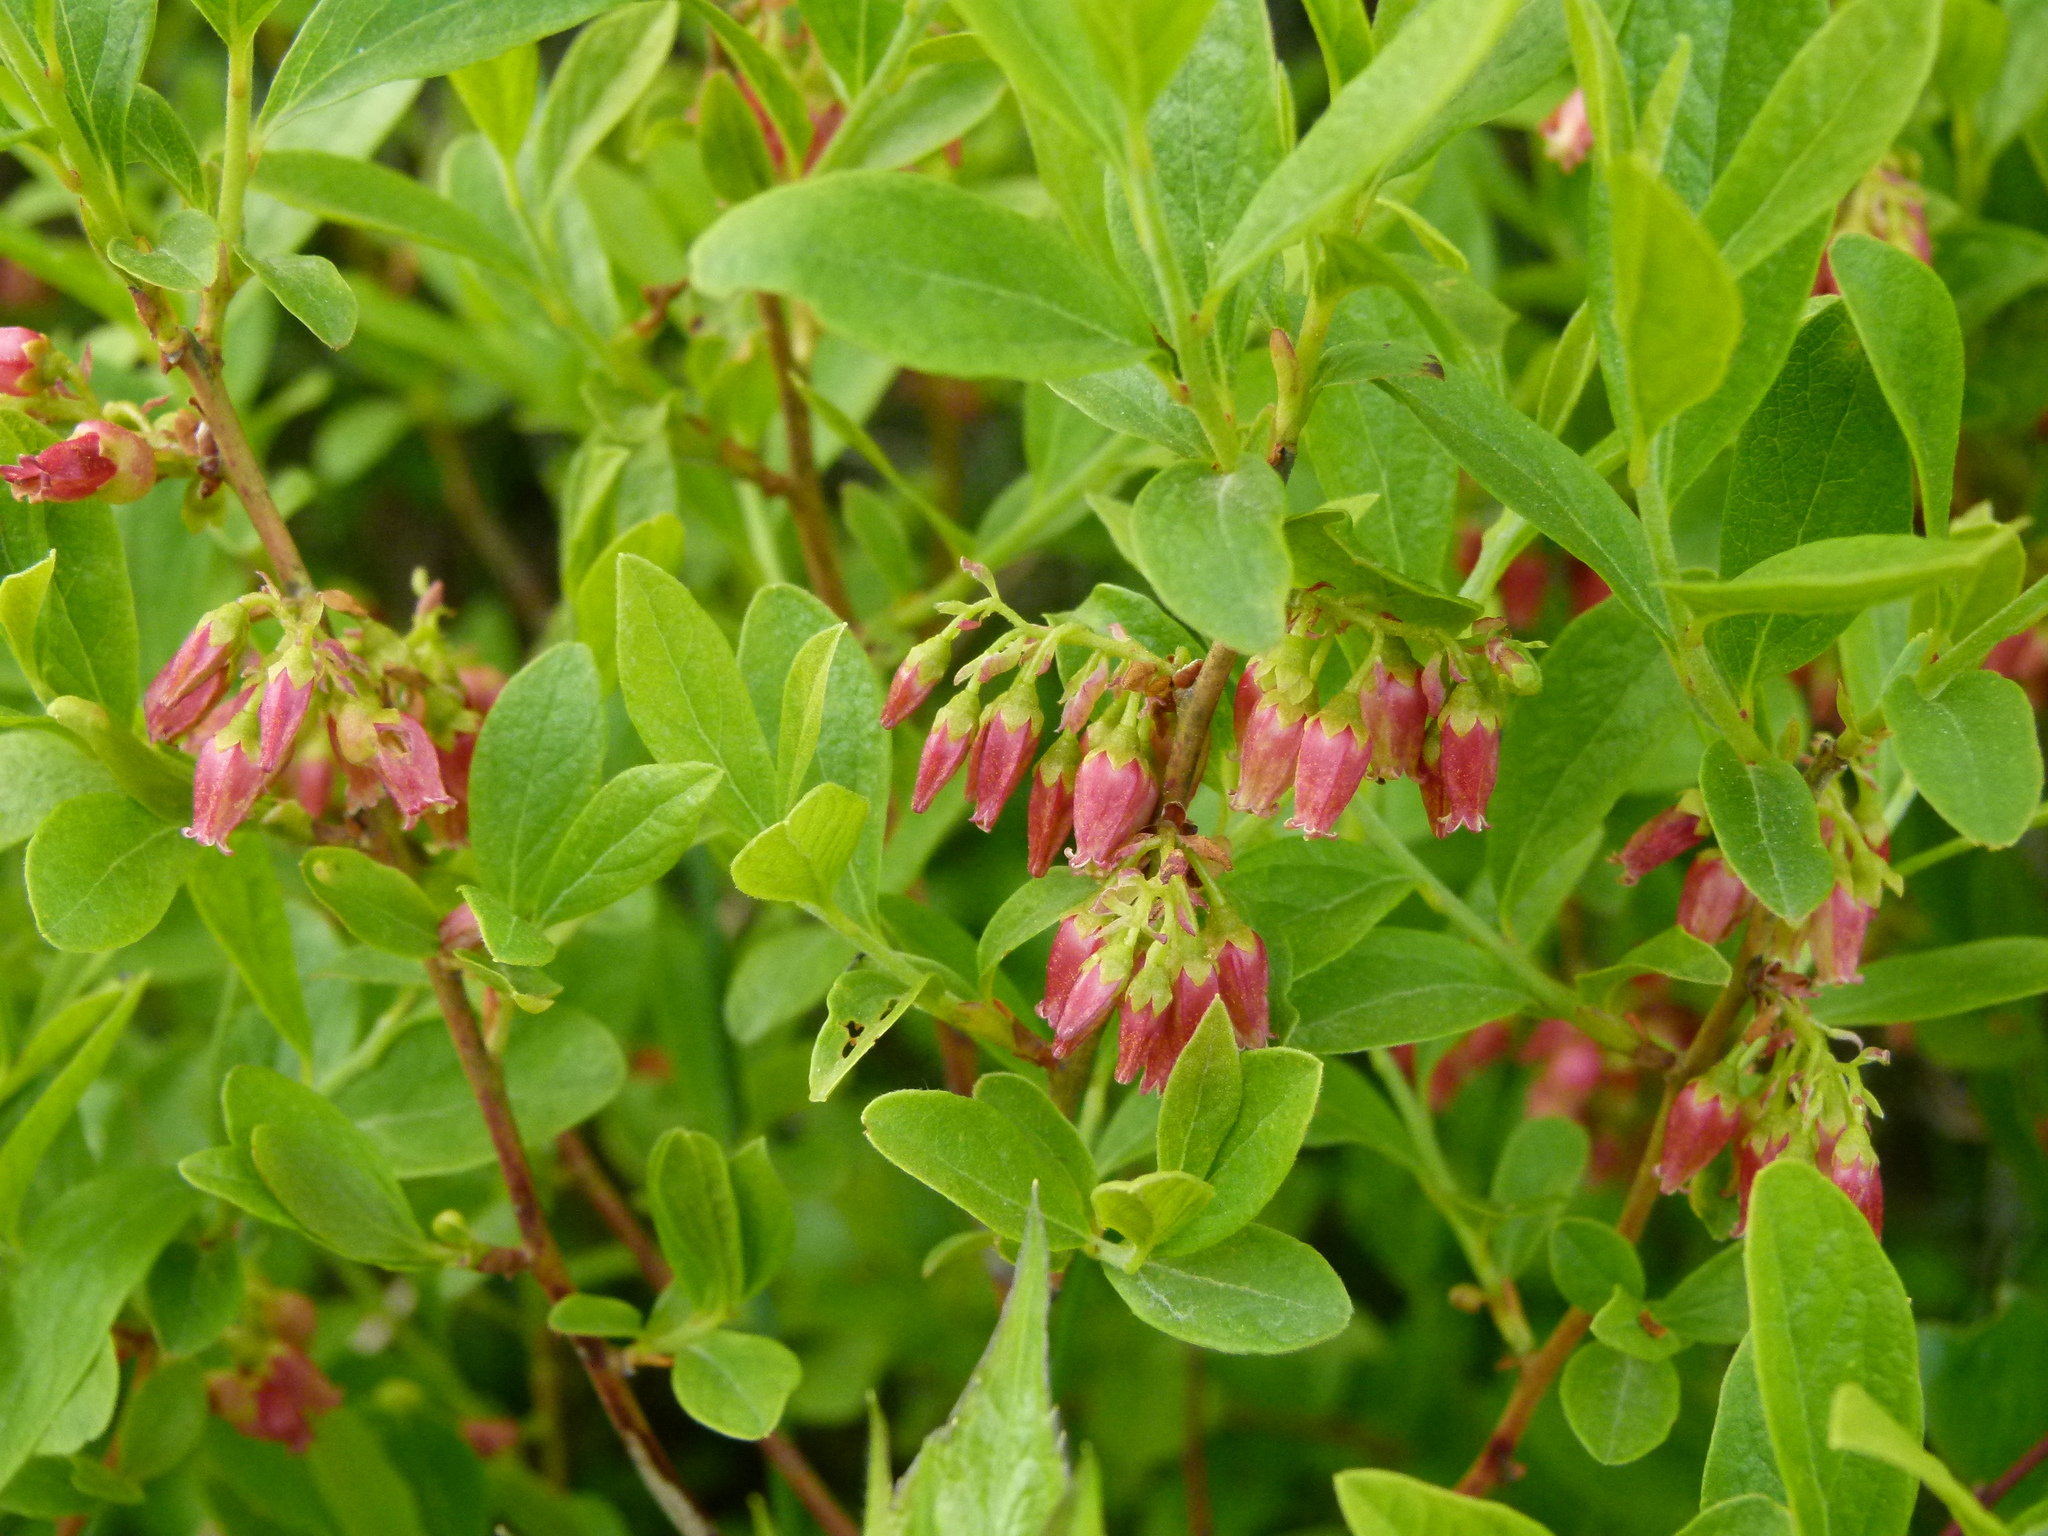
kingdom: Plantae
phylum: Tracheophyta
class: Magnoliopsida
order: Ericales
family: Ericaceae
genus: Gaylussacia
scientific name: Gaylussacia baccata
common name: Black huckleberry
